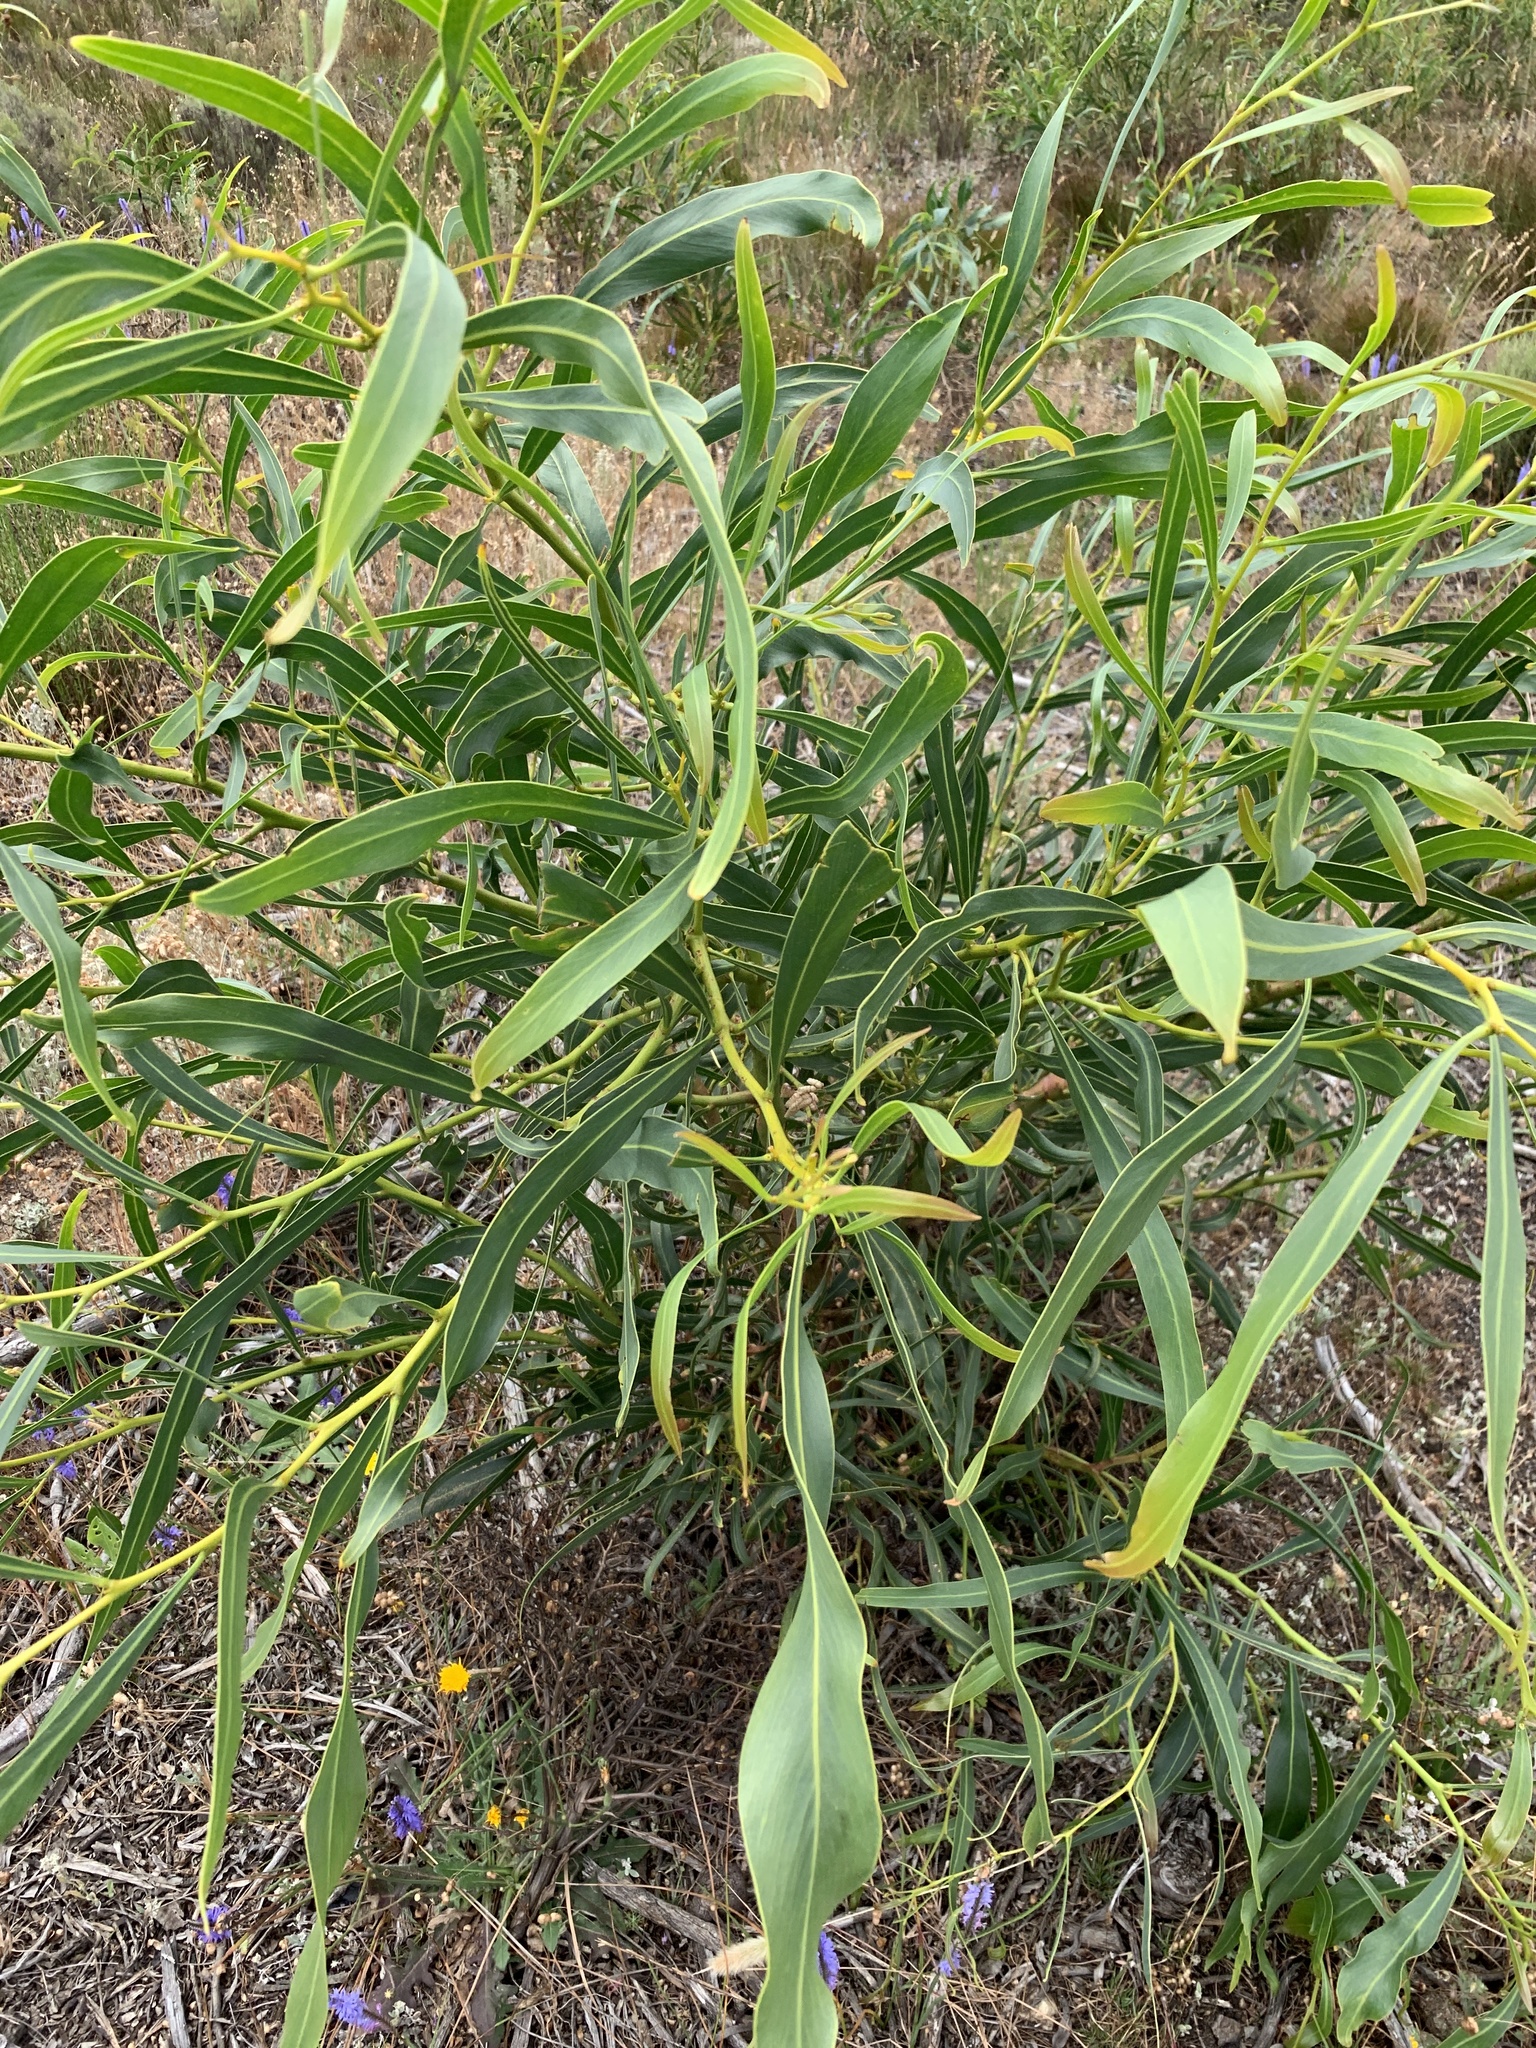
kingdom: Plantae
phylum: Tracheophyta
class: Magnoliopsida
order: Fabales
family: Fabaceae
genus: Acacia
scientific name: Acacia saligna
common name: Orange wattle
